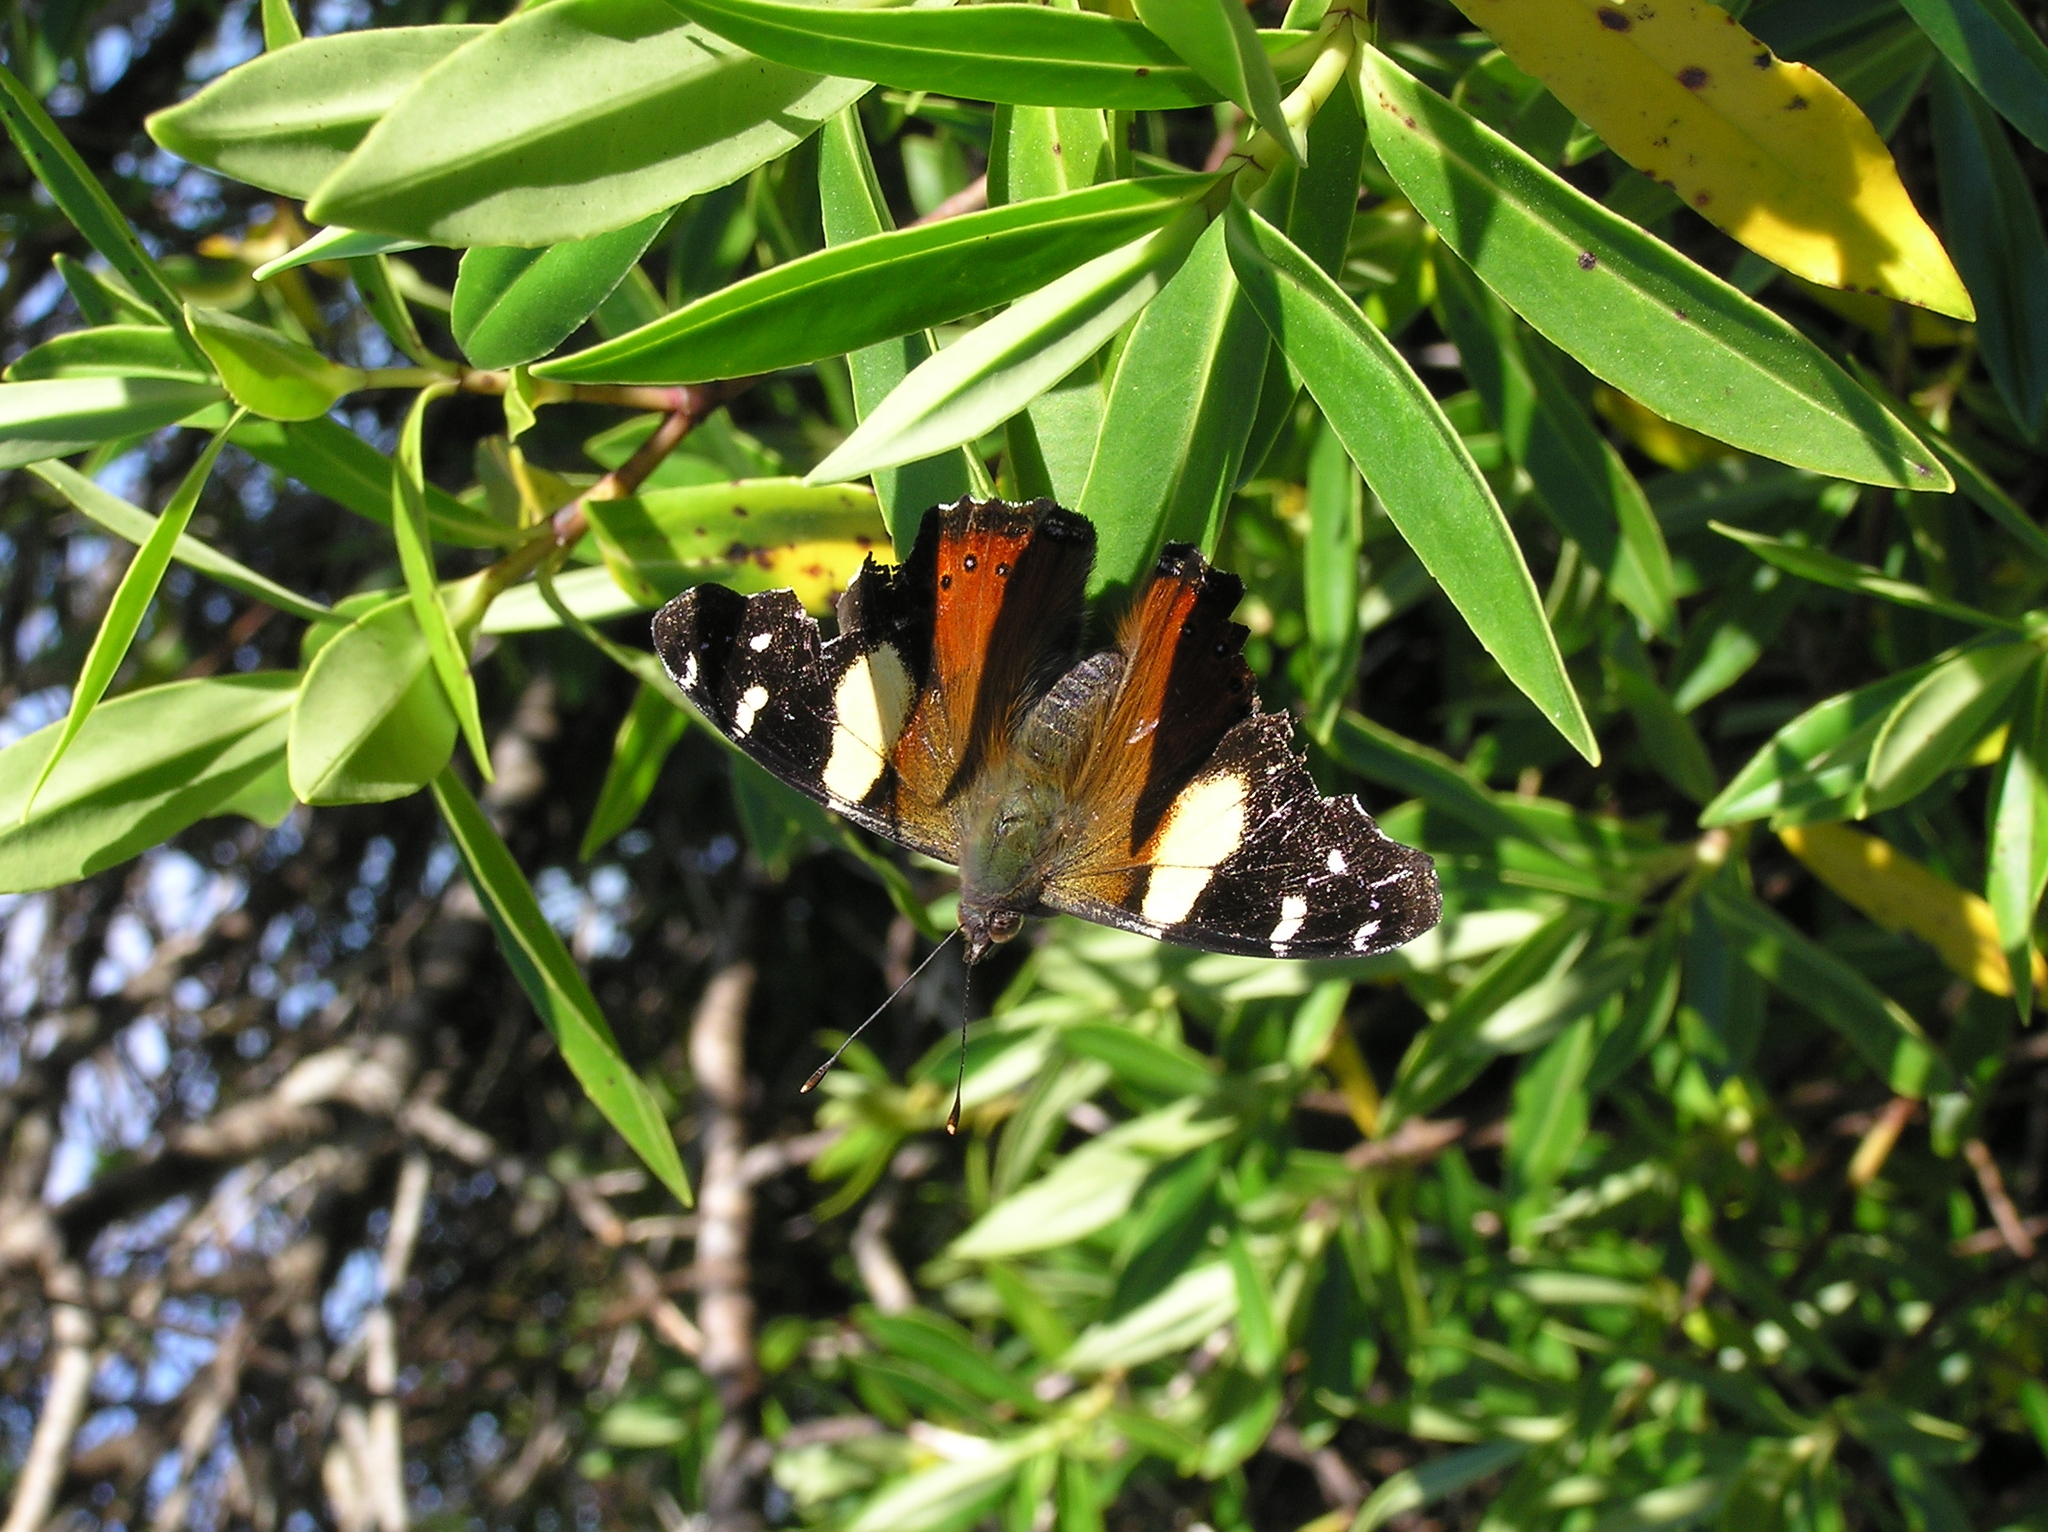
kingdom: Animalia
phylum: Arthropoda
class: Insecta
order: Lepidoptera
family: Nymphalidae
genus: Vanessa
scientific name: Vanessa itea
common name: Yellow admiral
